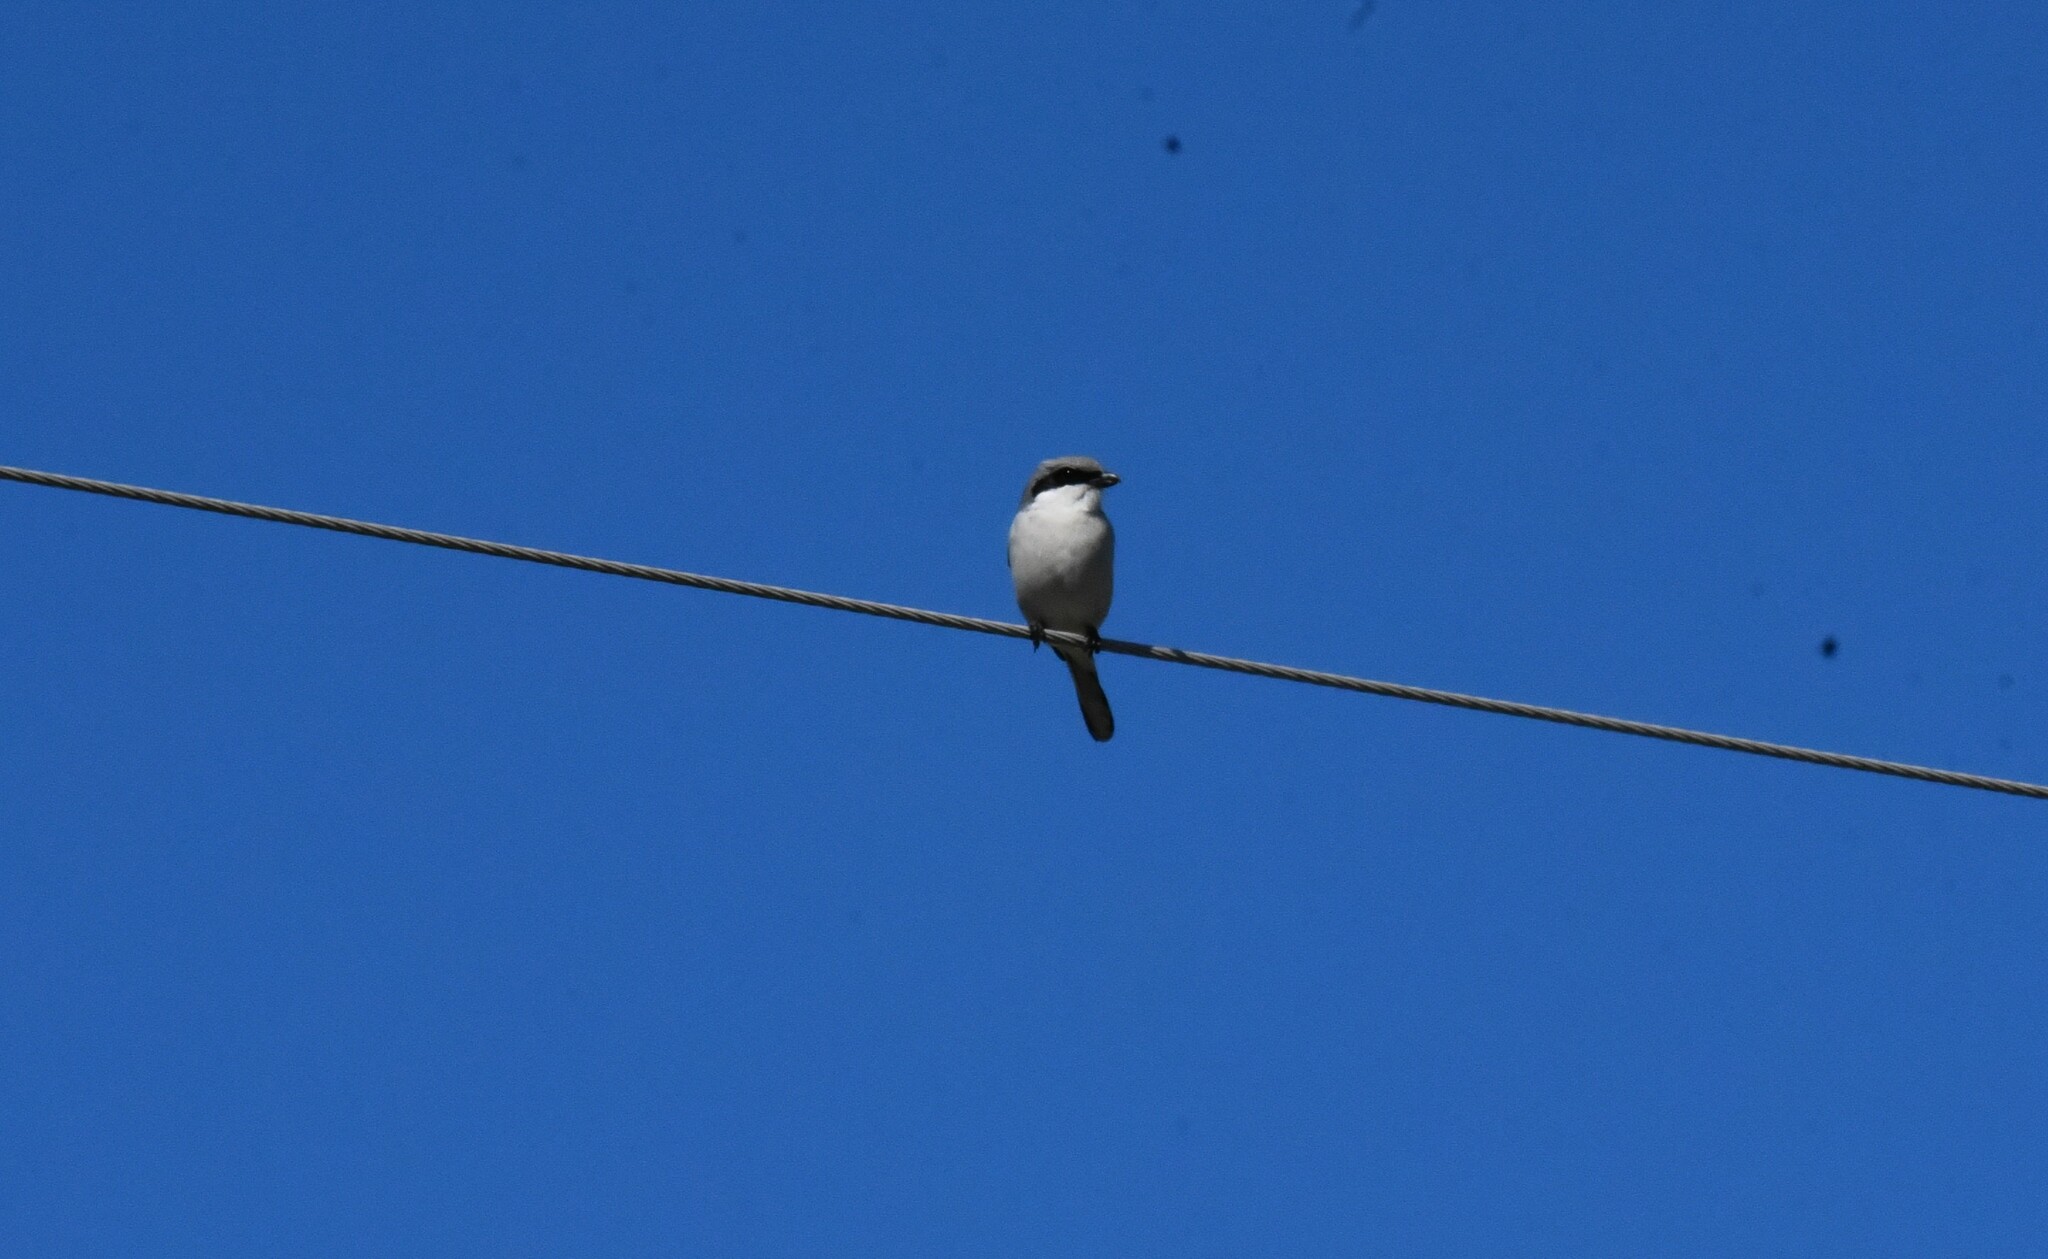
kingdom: Animalia
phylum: Chordata
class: Aves
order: Passeriformes
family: Laniidae
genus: Lanius
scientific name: Lanius ludovicianus
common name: Loggerhead shrike
